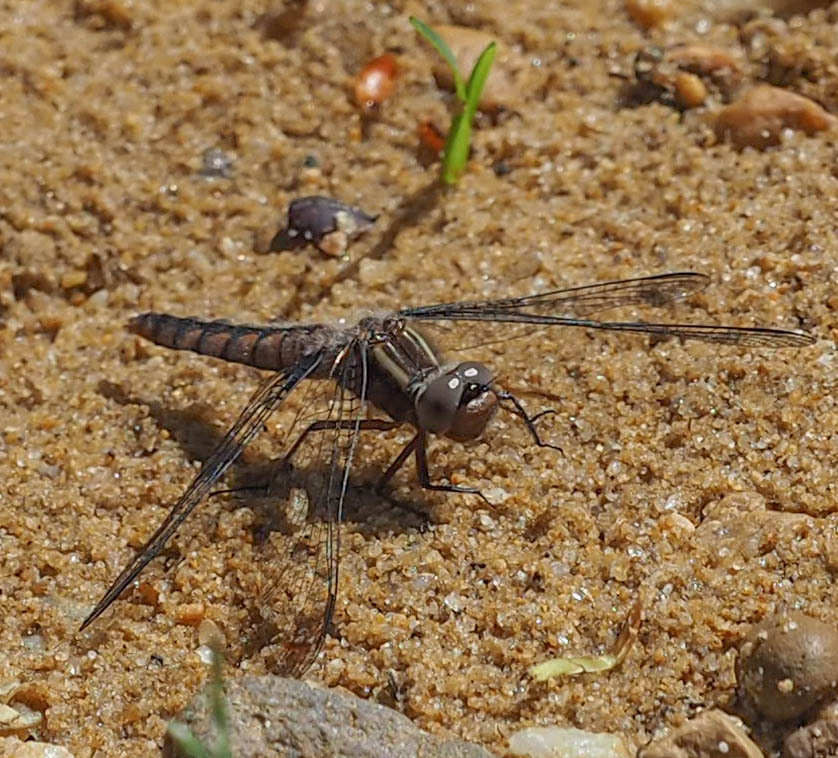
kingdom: Animalia
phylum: Arthropoda
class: Insecta
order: Odonata
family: Libellulidae
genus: Ladona
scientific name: Ladona deplanata
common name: Blue corporal
